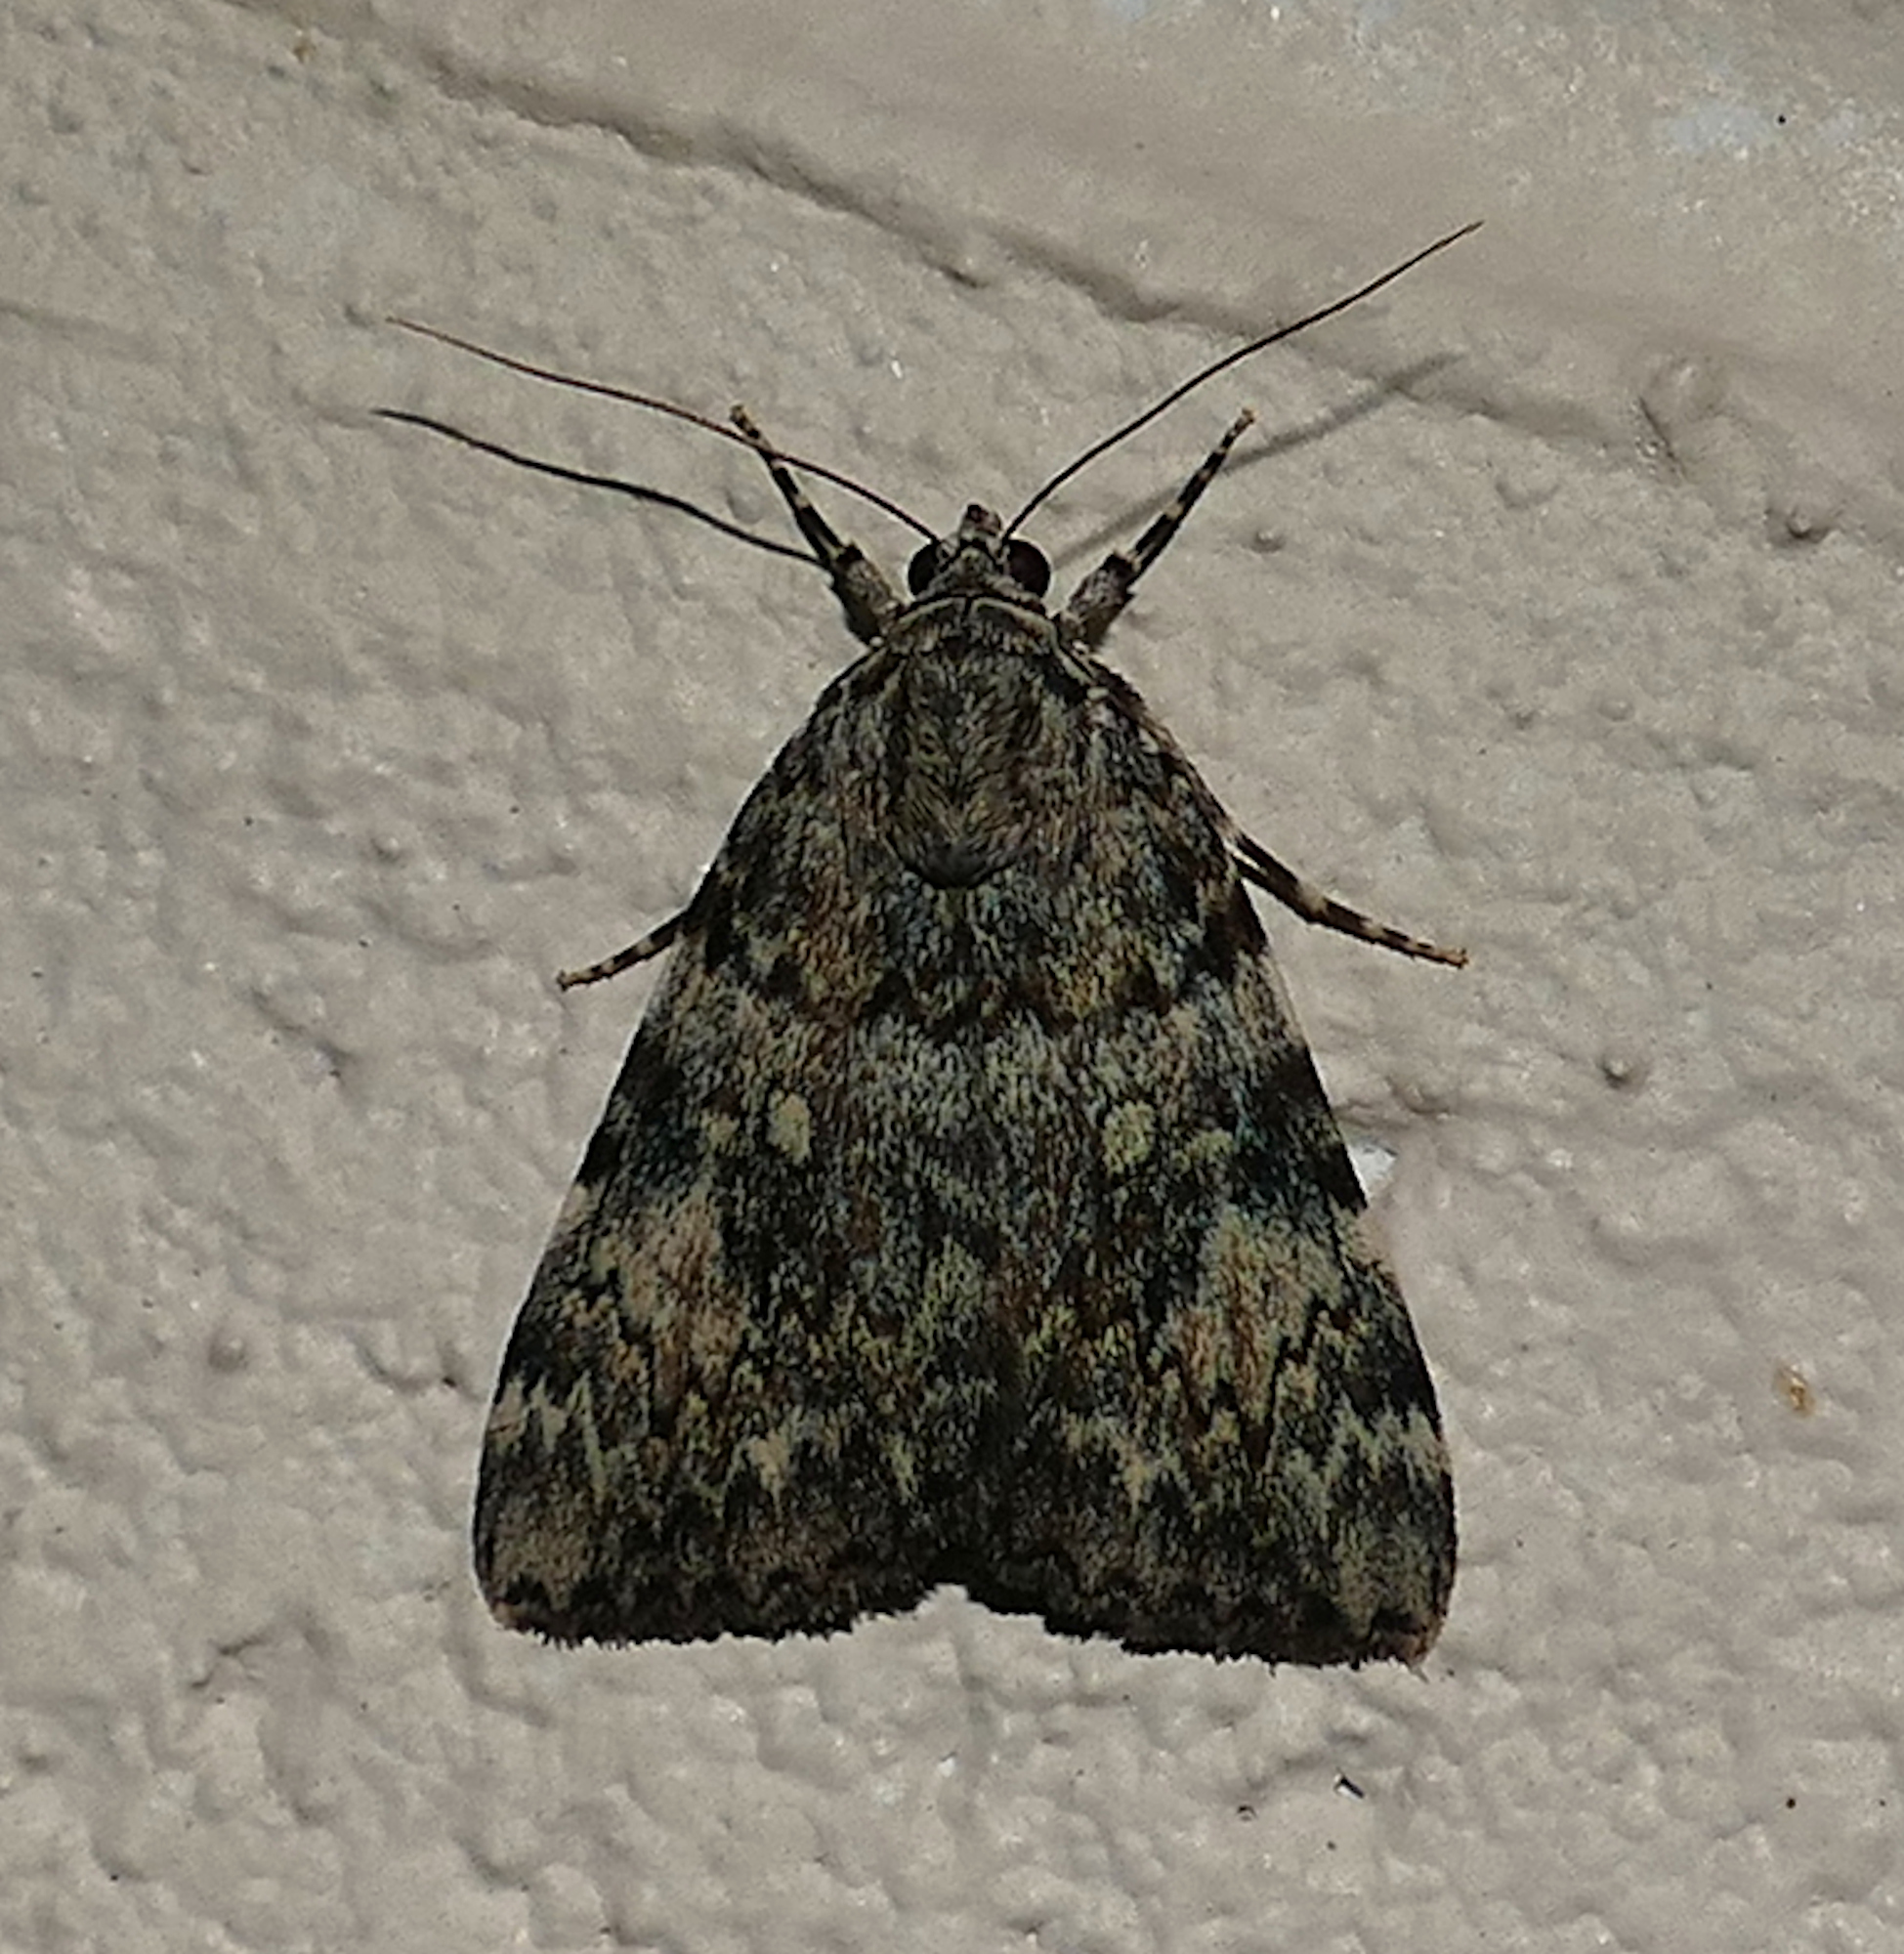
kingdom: Animalia
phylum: Arthropoda
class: Insecta
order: Lepidoptera
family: Erebidae
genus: Catocala
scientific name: Catocala lineella
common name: Little lined underwing
